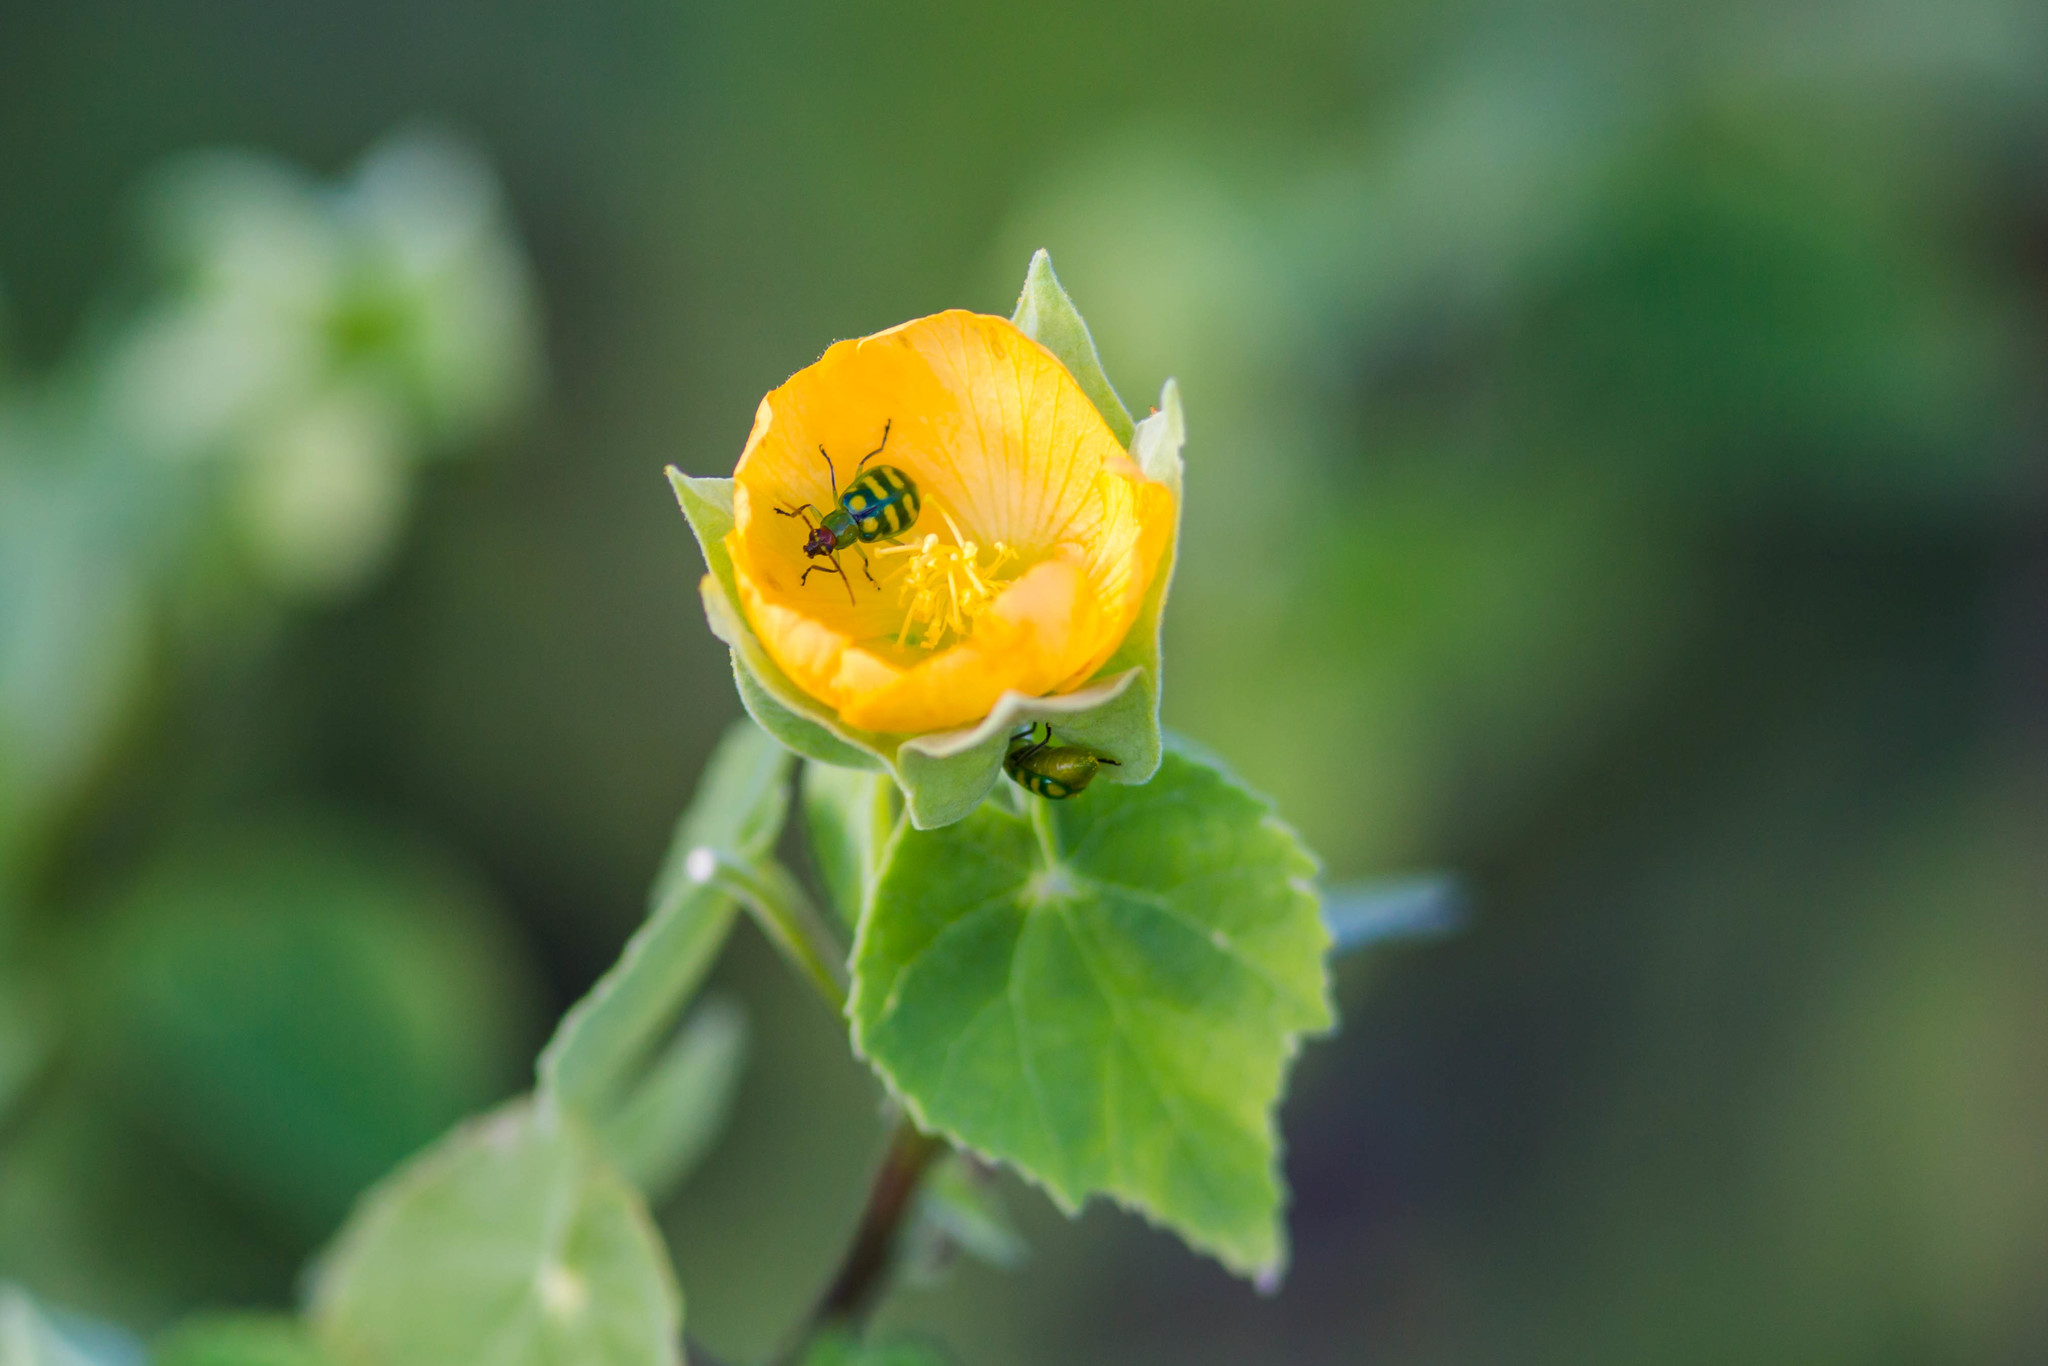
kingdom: Animalia
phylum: Arthropoda
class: Insecta
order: Coleoptera
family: Chrysomelidae
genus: Diabrotica
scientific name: Diabrotica balteata
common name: Leaf beetle
